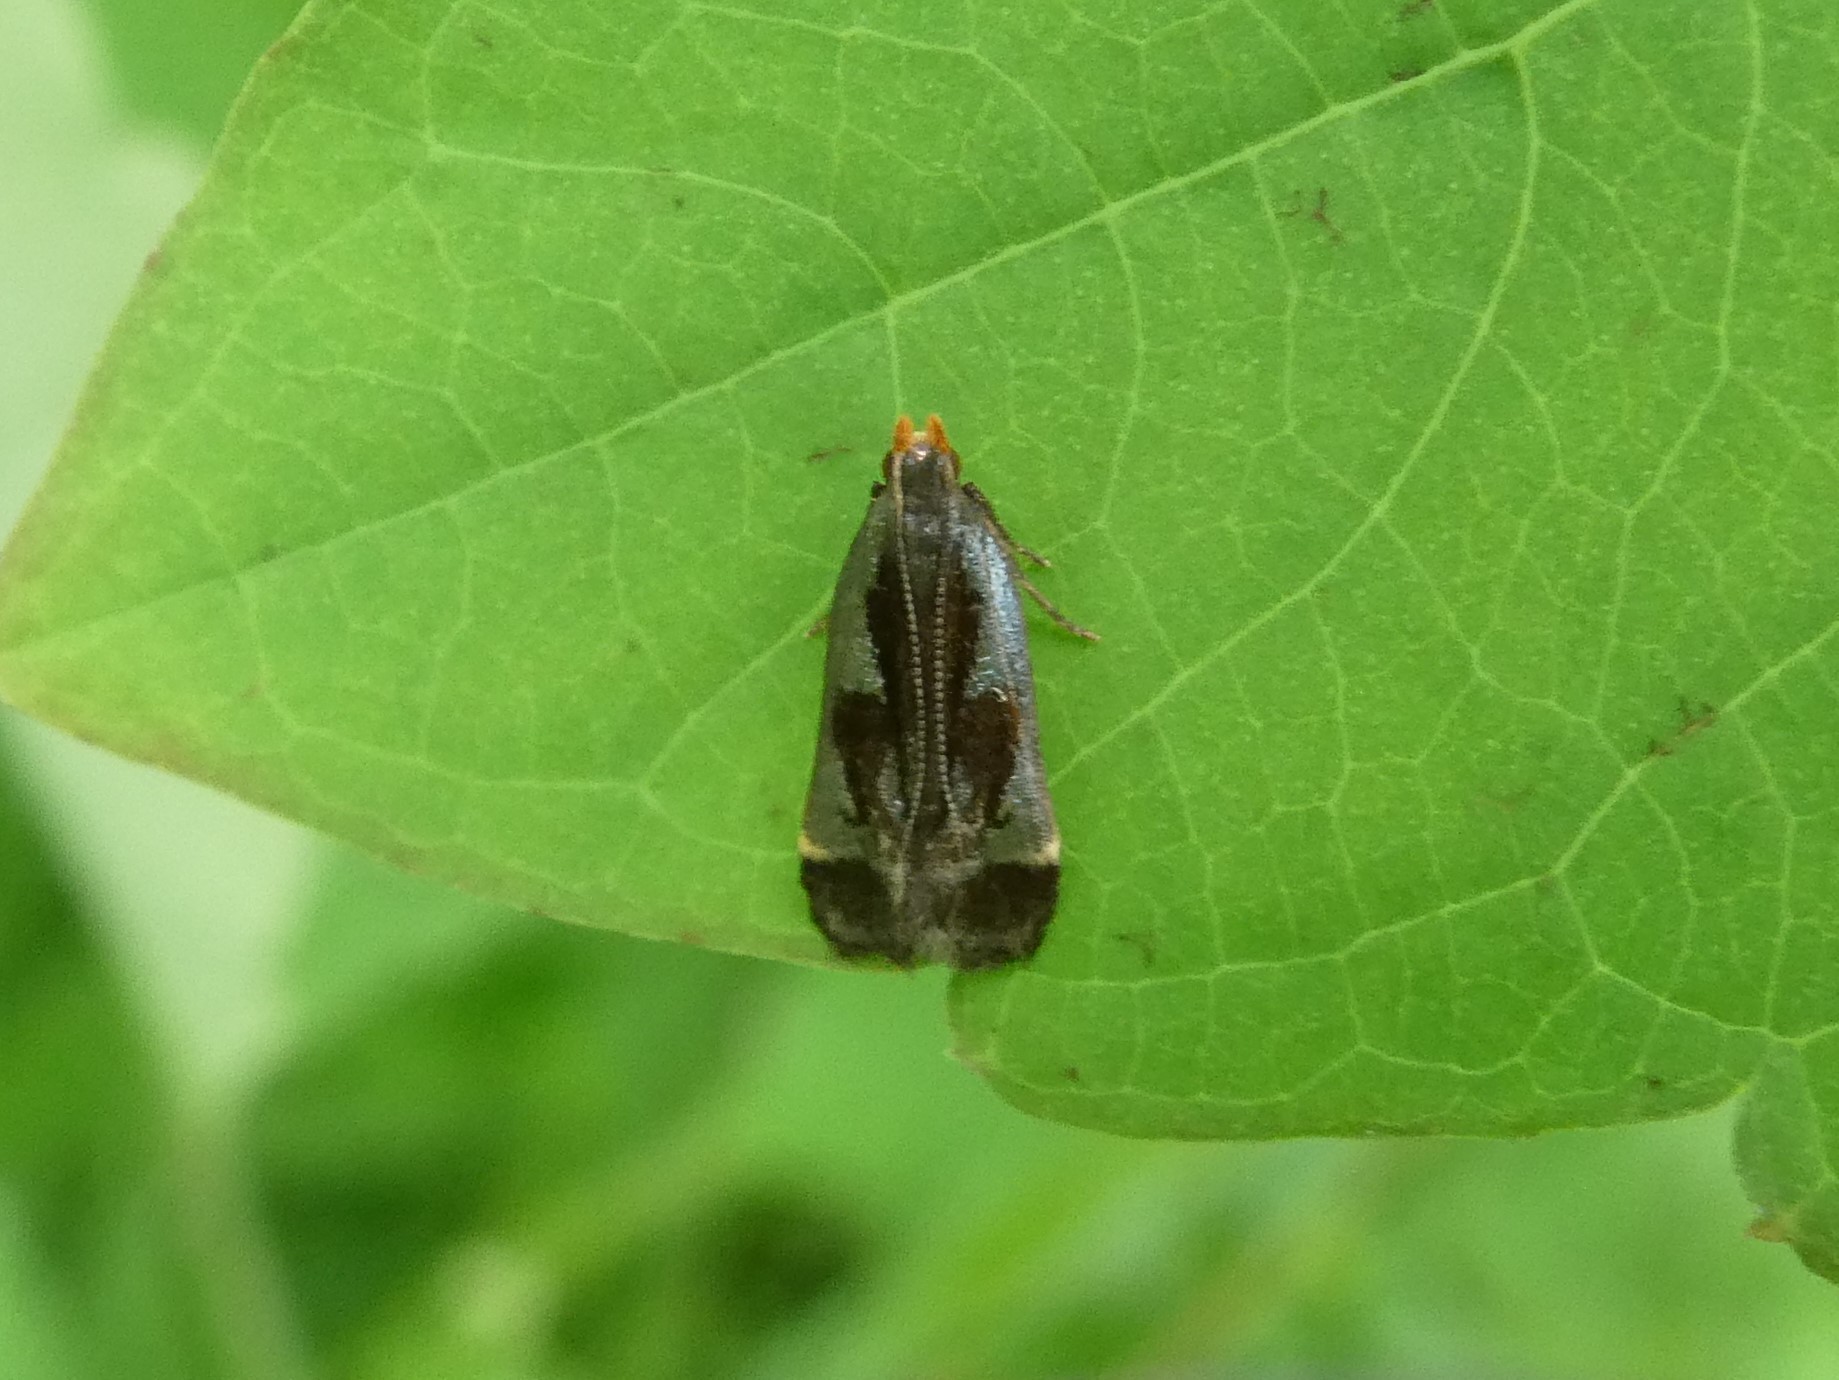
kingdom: Animalia
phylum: Arthropoda
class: Insecta
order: Lepidoptera
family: Gelechiidae
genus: Dichomeris
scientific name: Dichomeris ochripalpella
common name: Shining dichomeris moth
